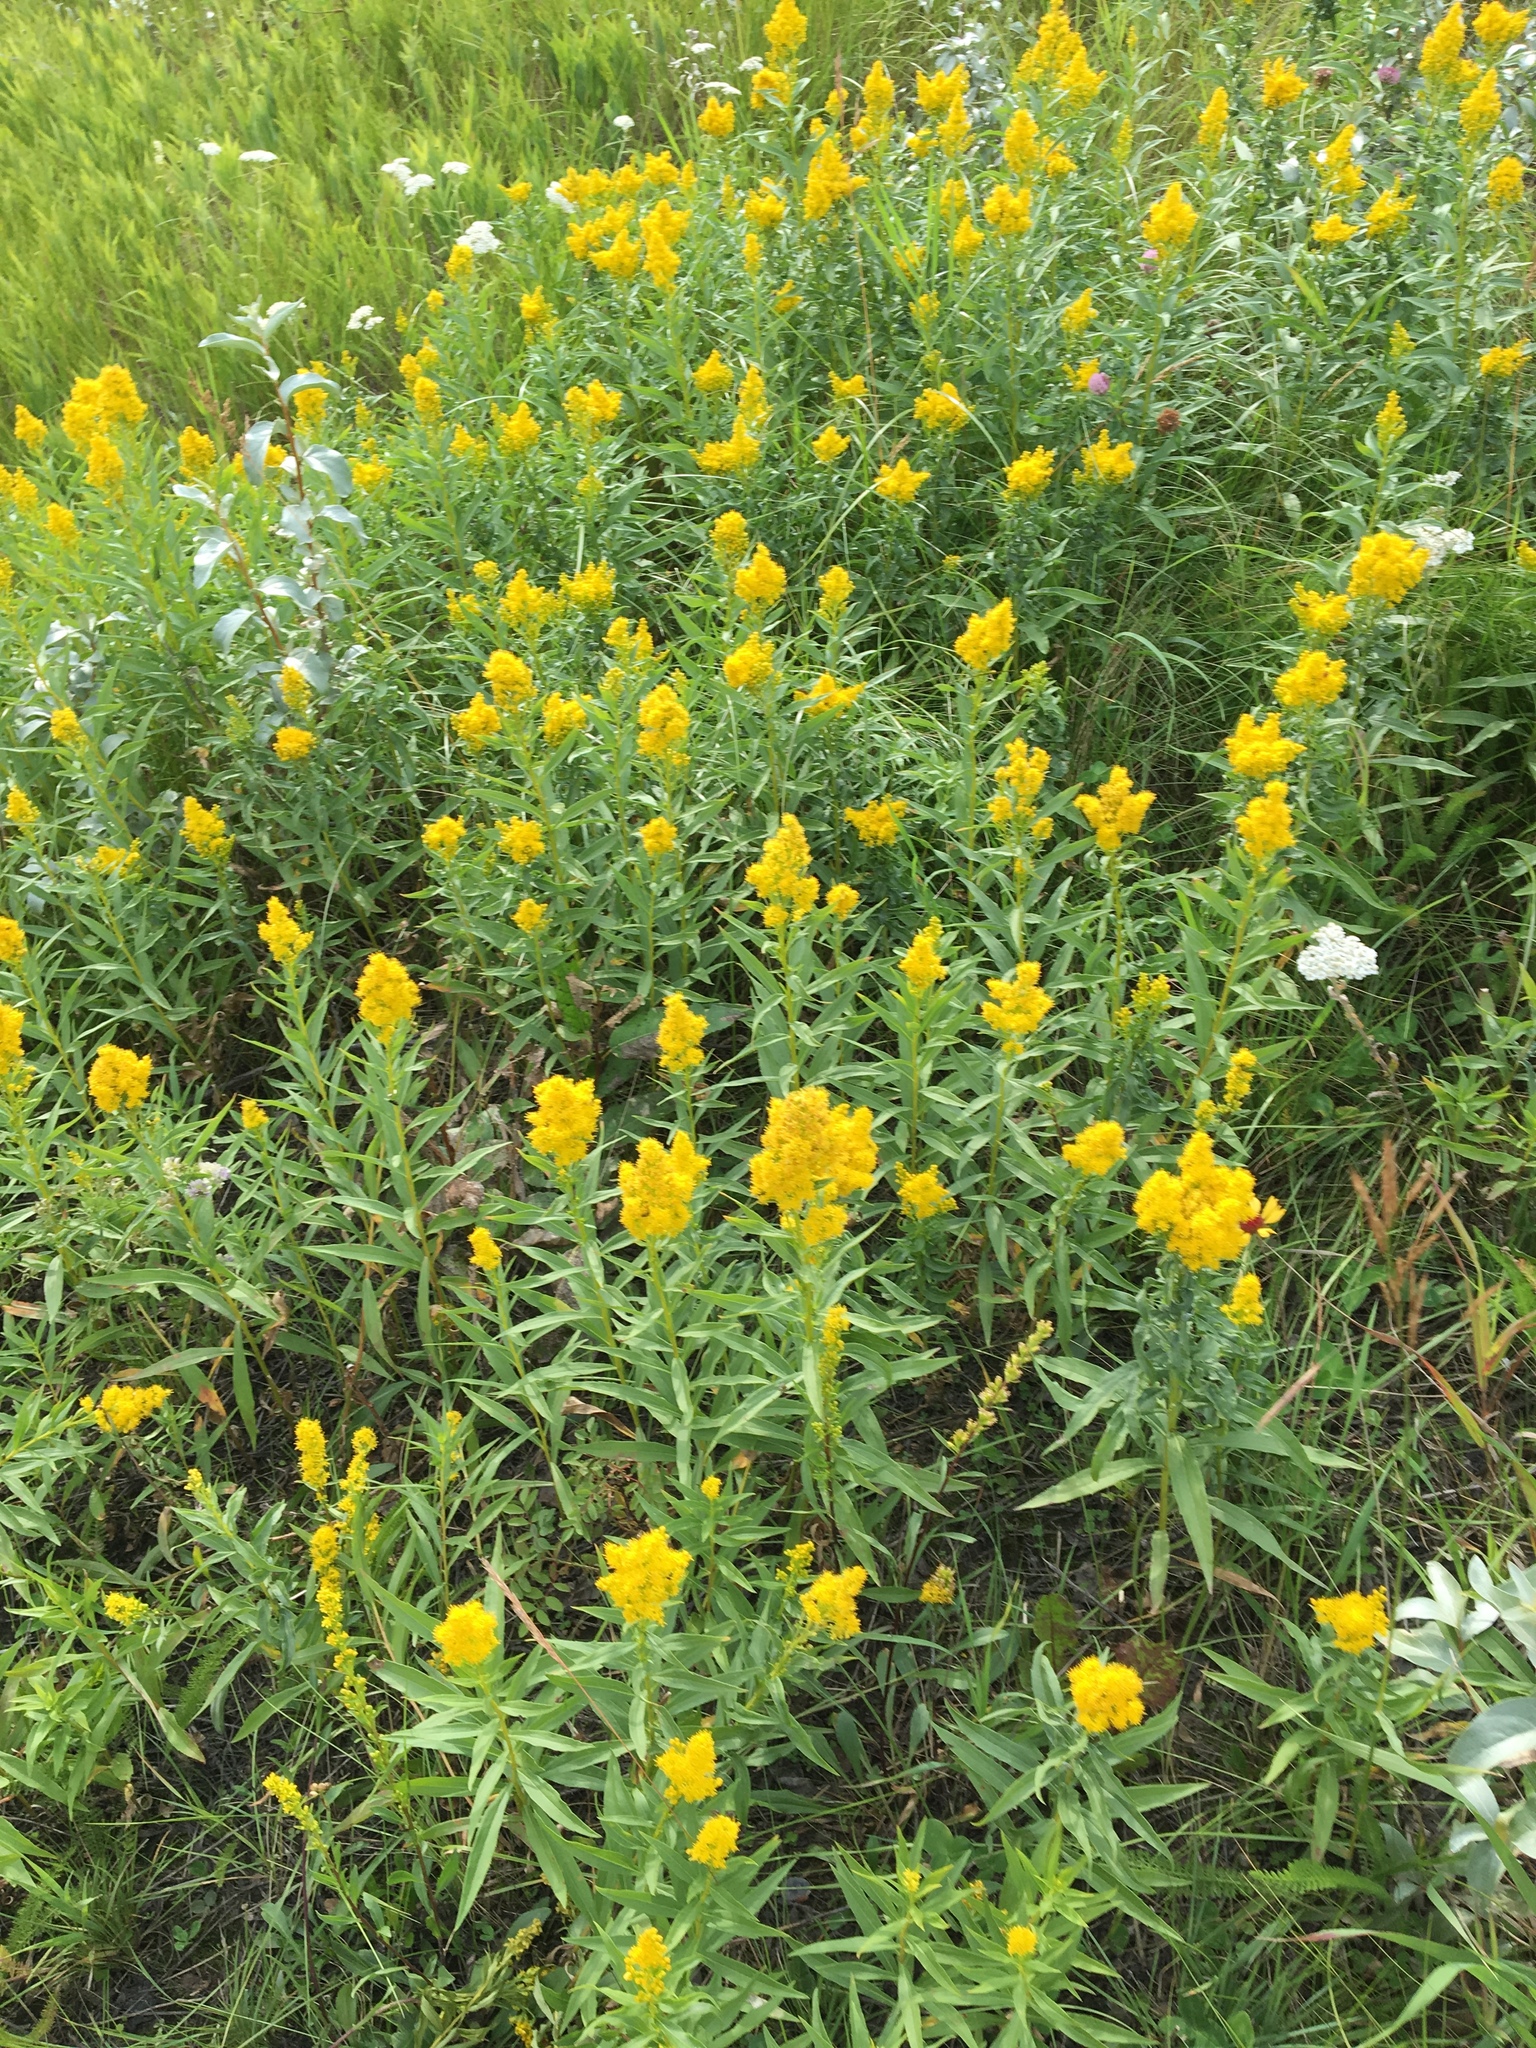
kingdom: Plantae
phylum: Tracheophyta
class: Magnoliopsida
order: Asterales
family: Asteraceae
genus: Solidago
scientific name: Solidago
